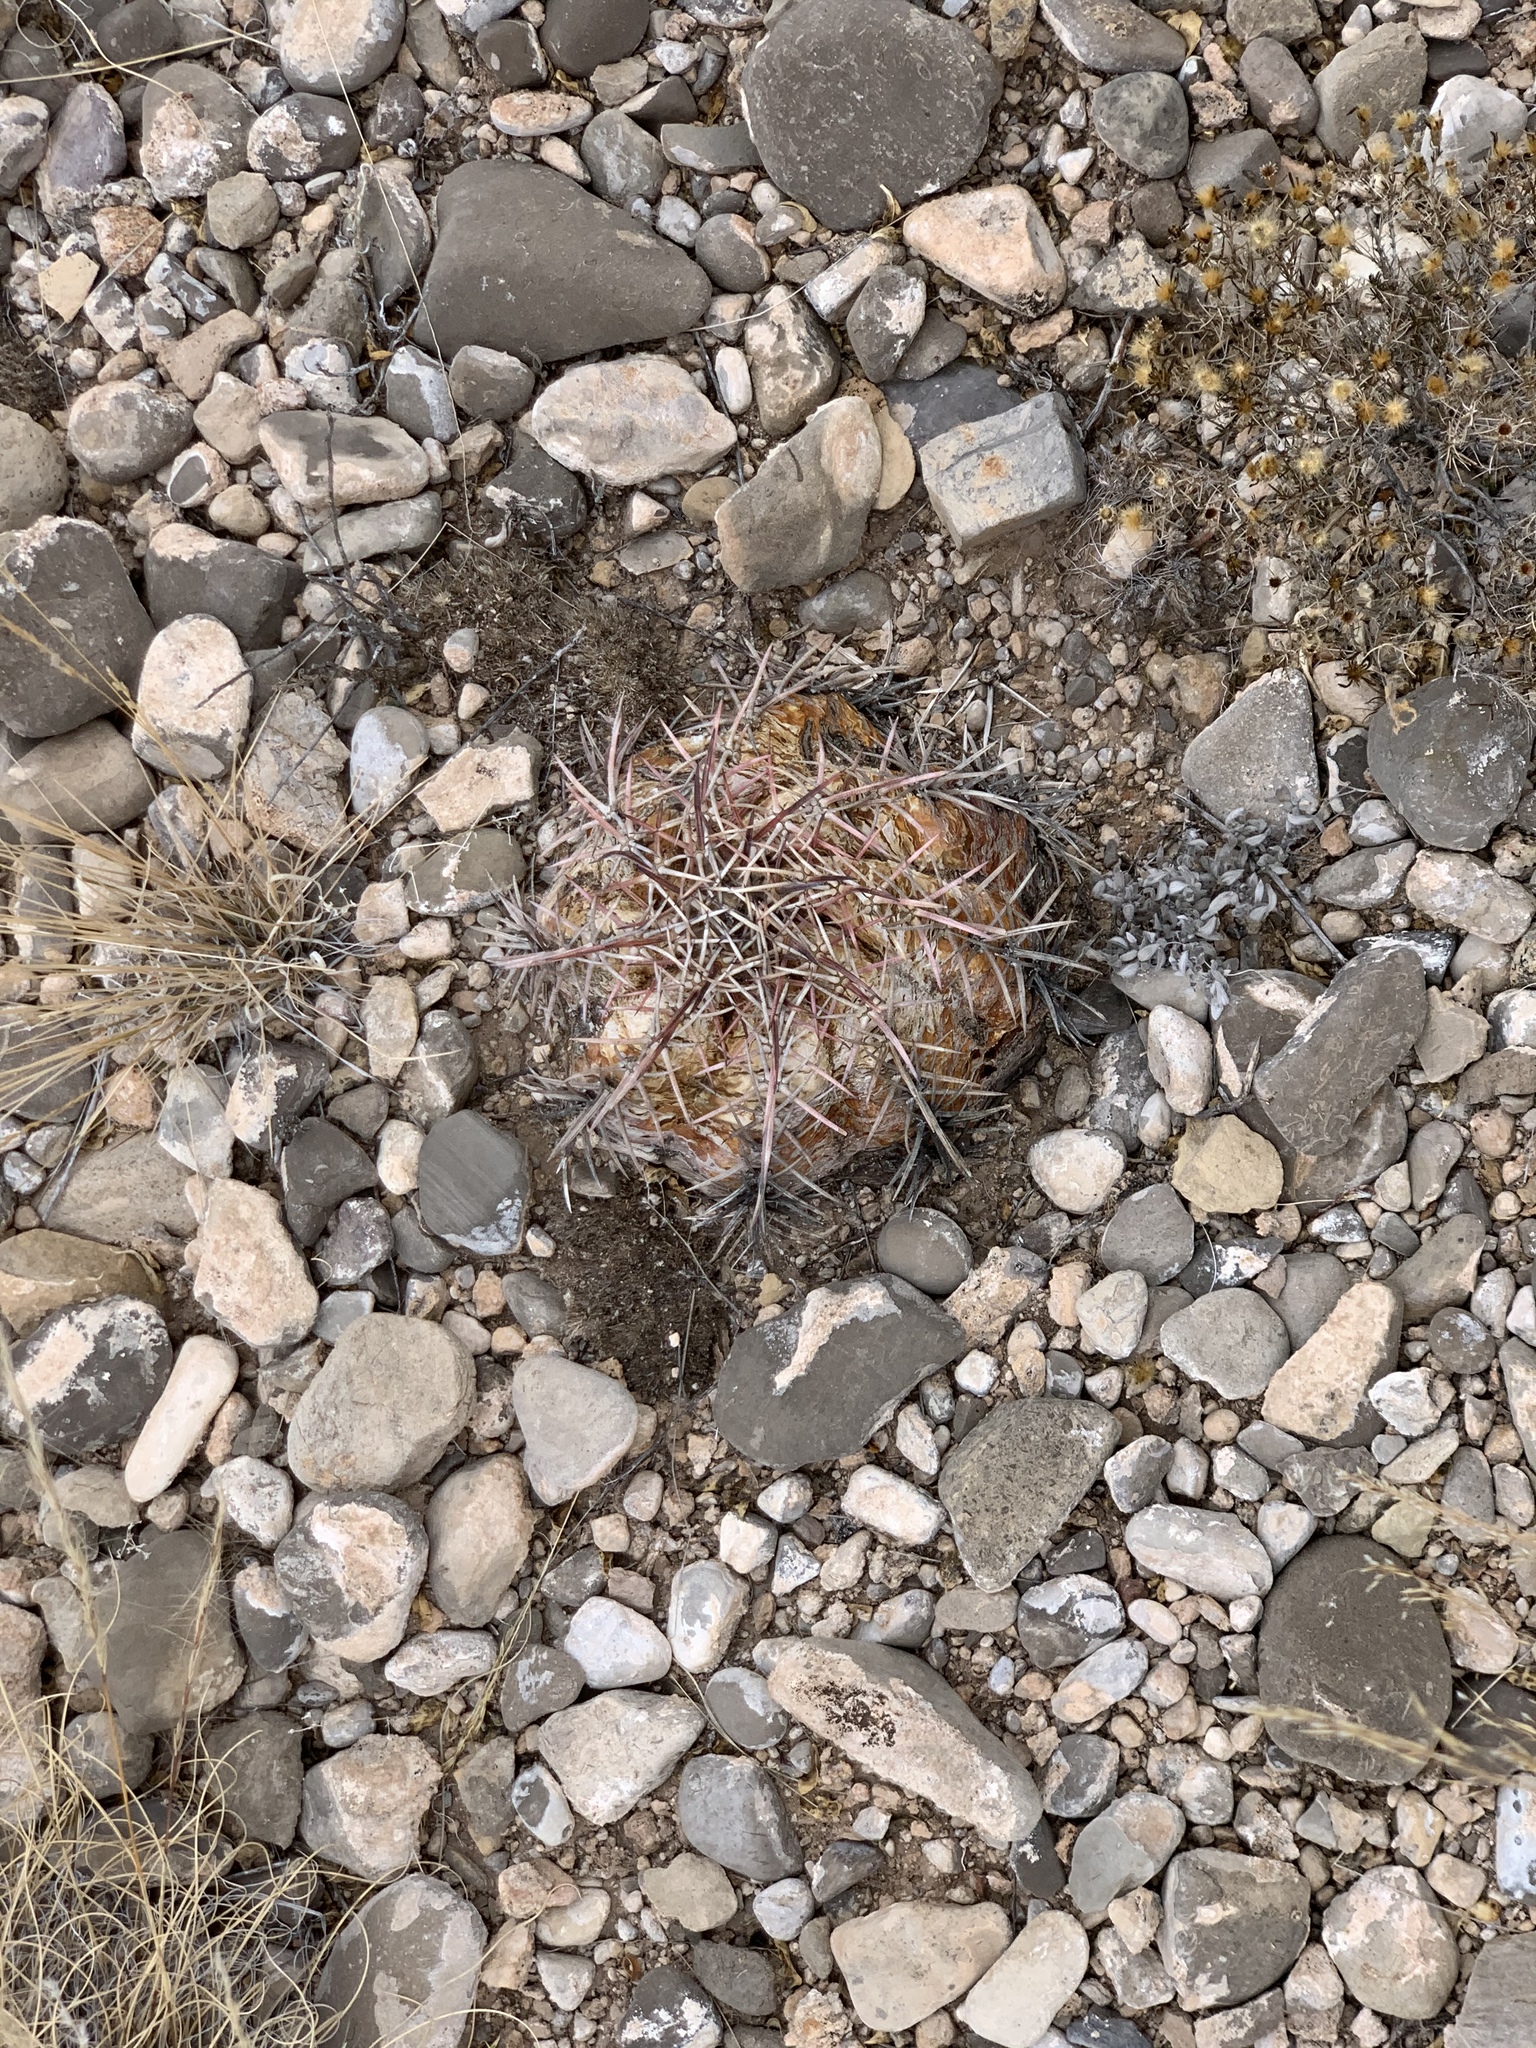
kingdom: Plantae
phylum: Tracheophyta
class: Magnoliopsida
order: Caryophyllales
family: Cactaceae
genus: Echinocactus
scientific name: Echinocactus horizonthalonius
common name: Devilshead
